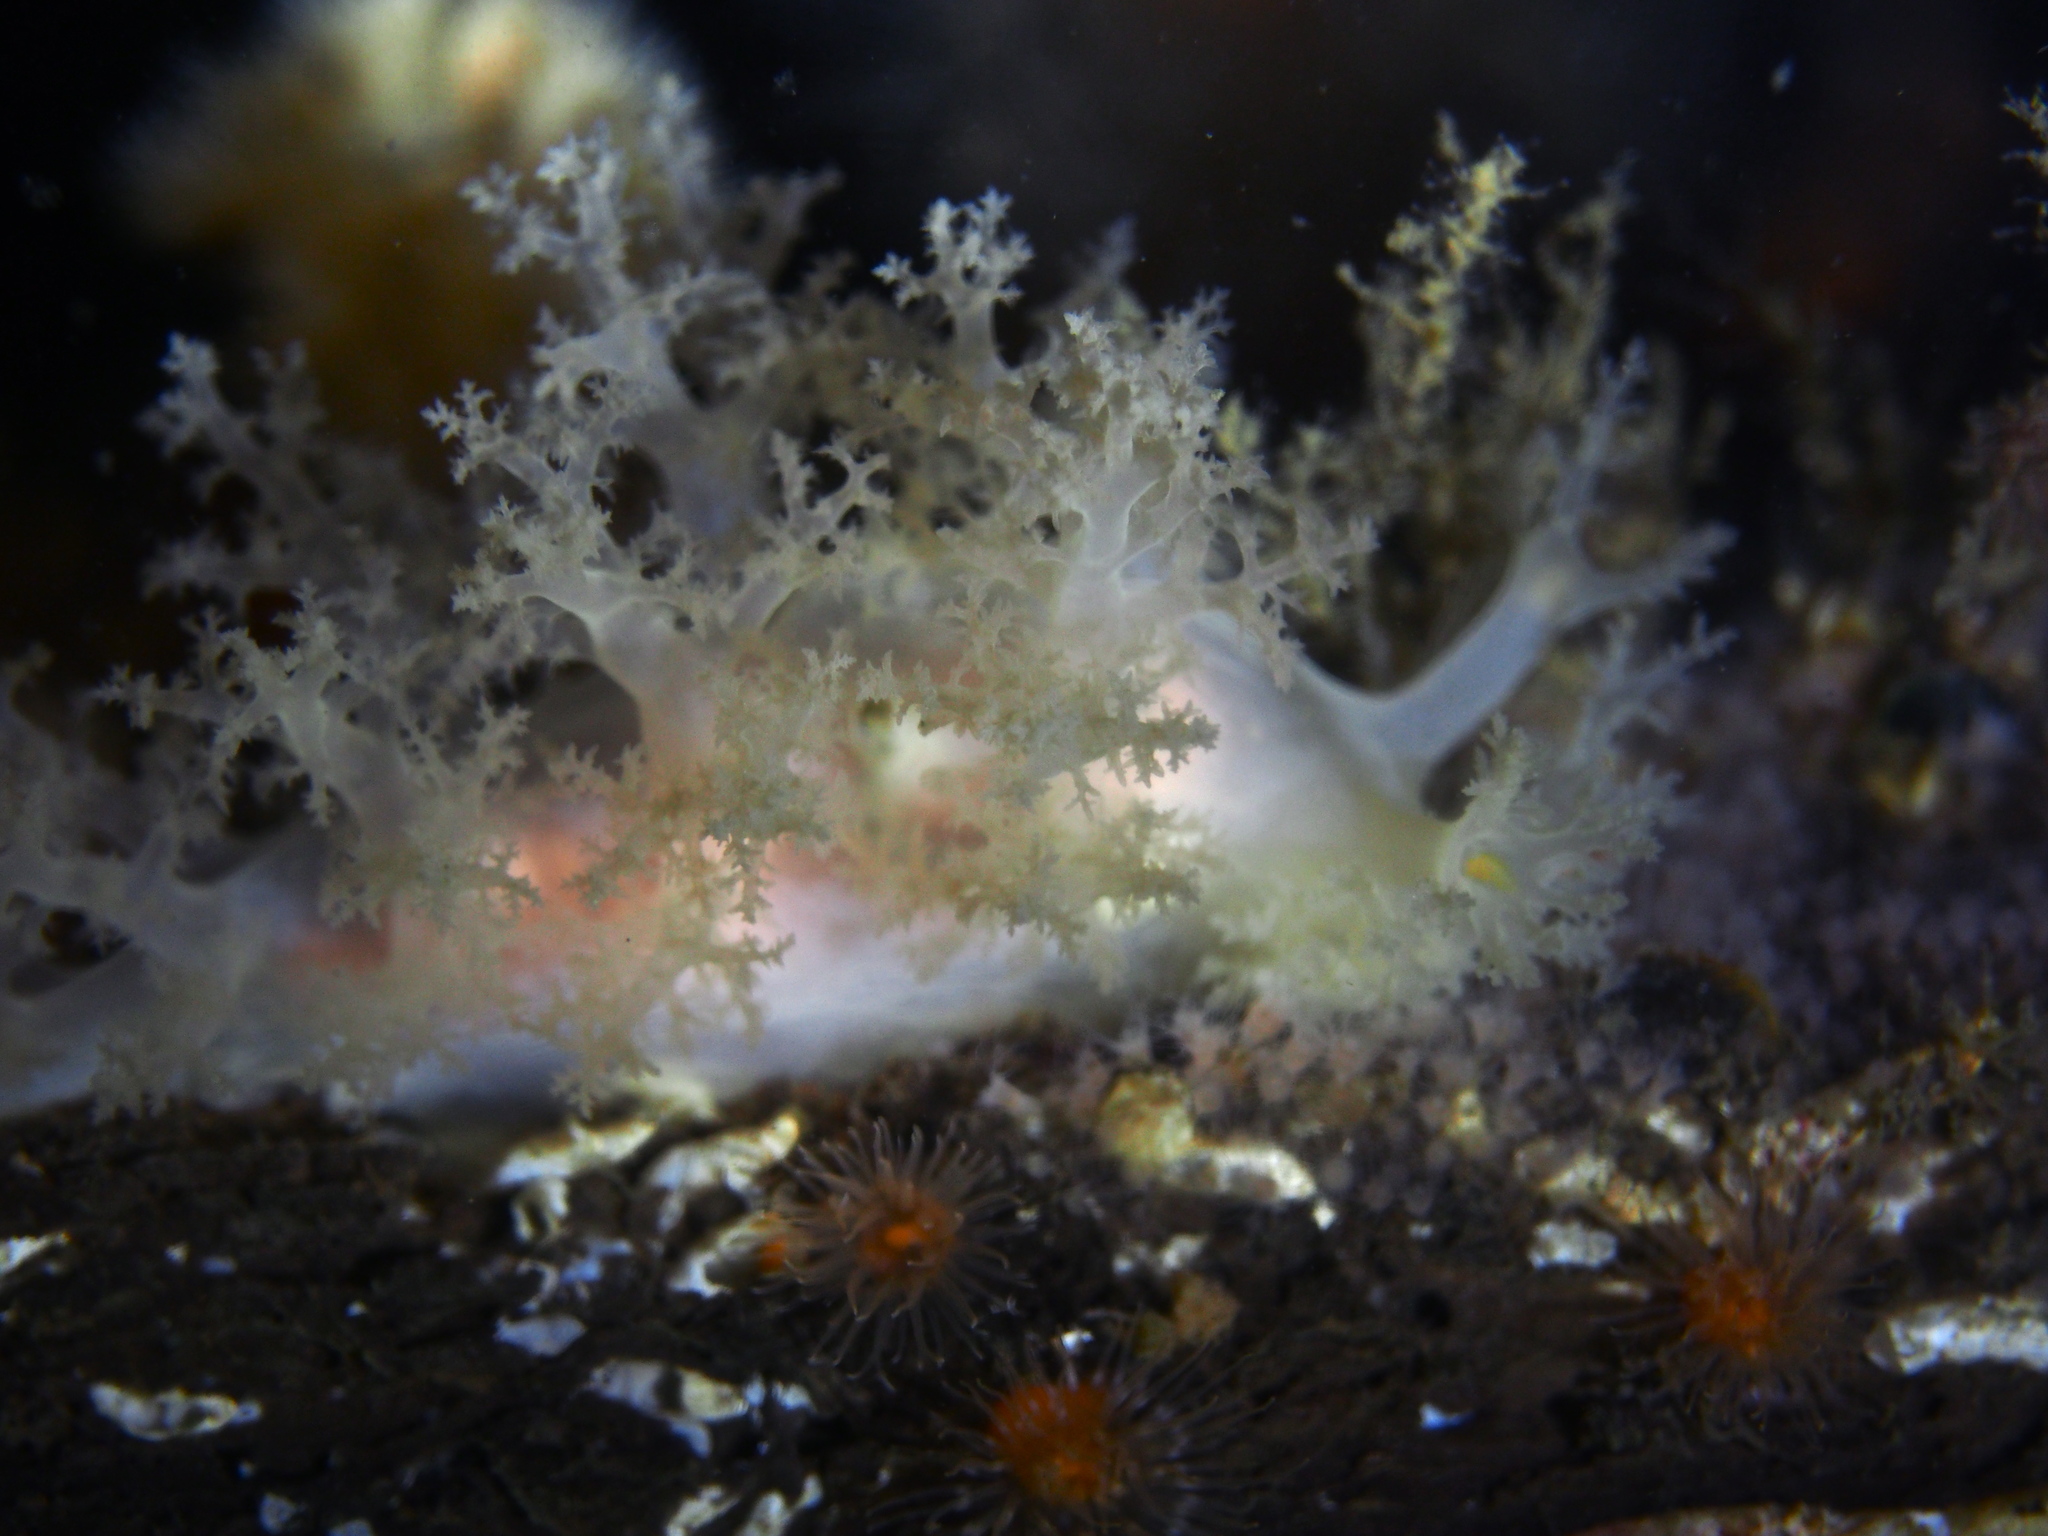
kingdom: Animalia
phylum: Mollusca
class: Gastropoda
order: Nudibranchia
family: Dendronotidae
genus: Dendronotus
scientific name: Dendronotus lacteus
